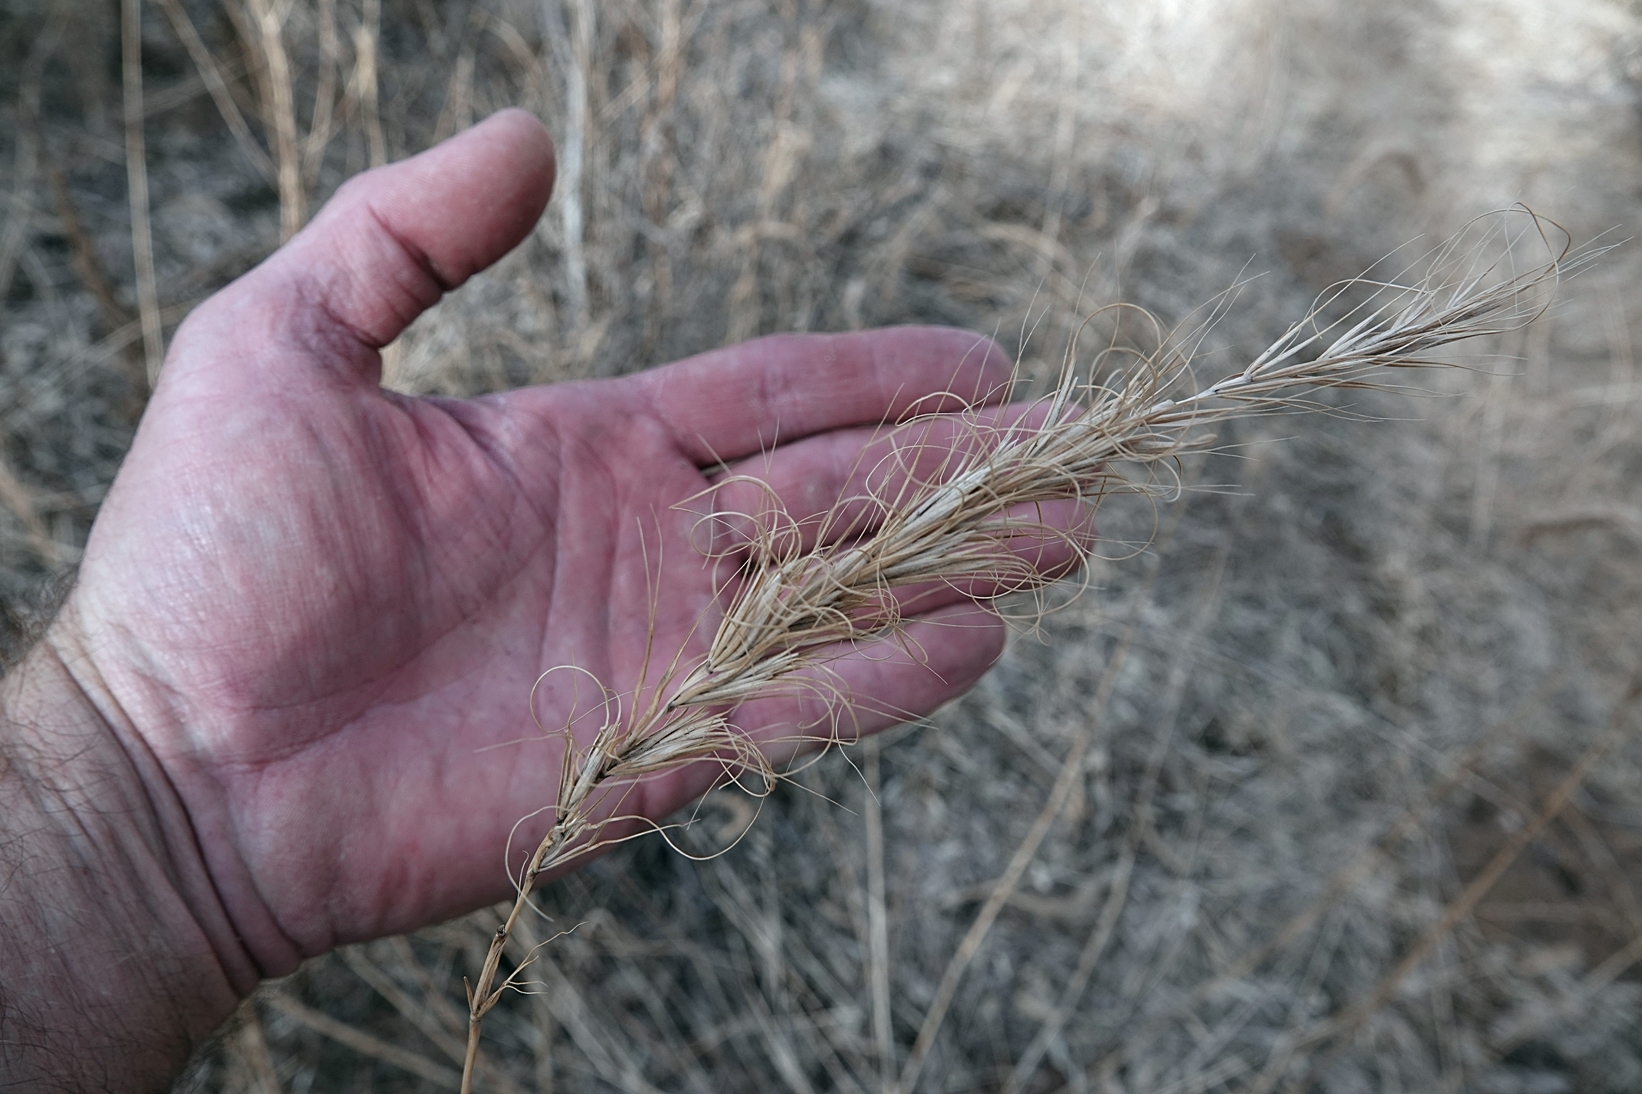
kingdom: Plantae
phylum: Tracheophyta
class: Liliopsida
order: Poales
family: Poaceae
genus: Elymus
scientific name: Elymus canadensis
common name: Canada wild rye
